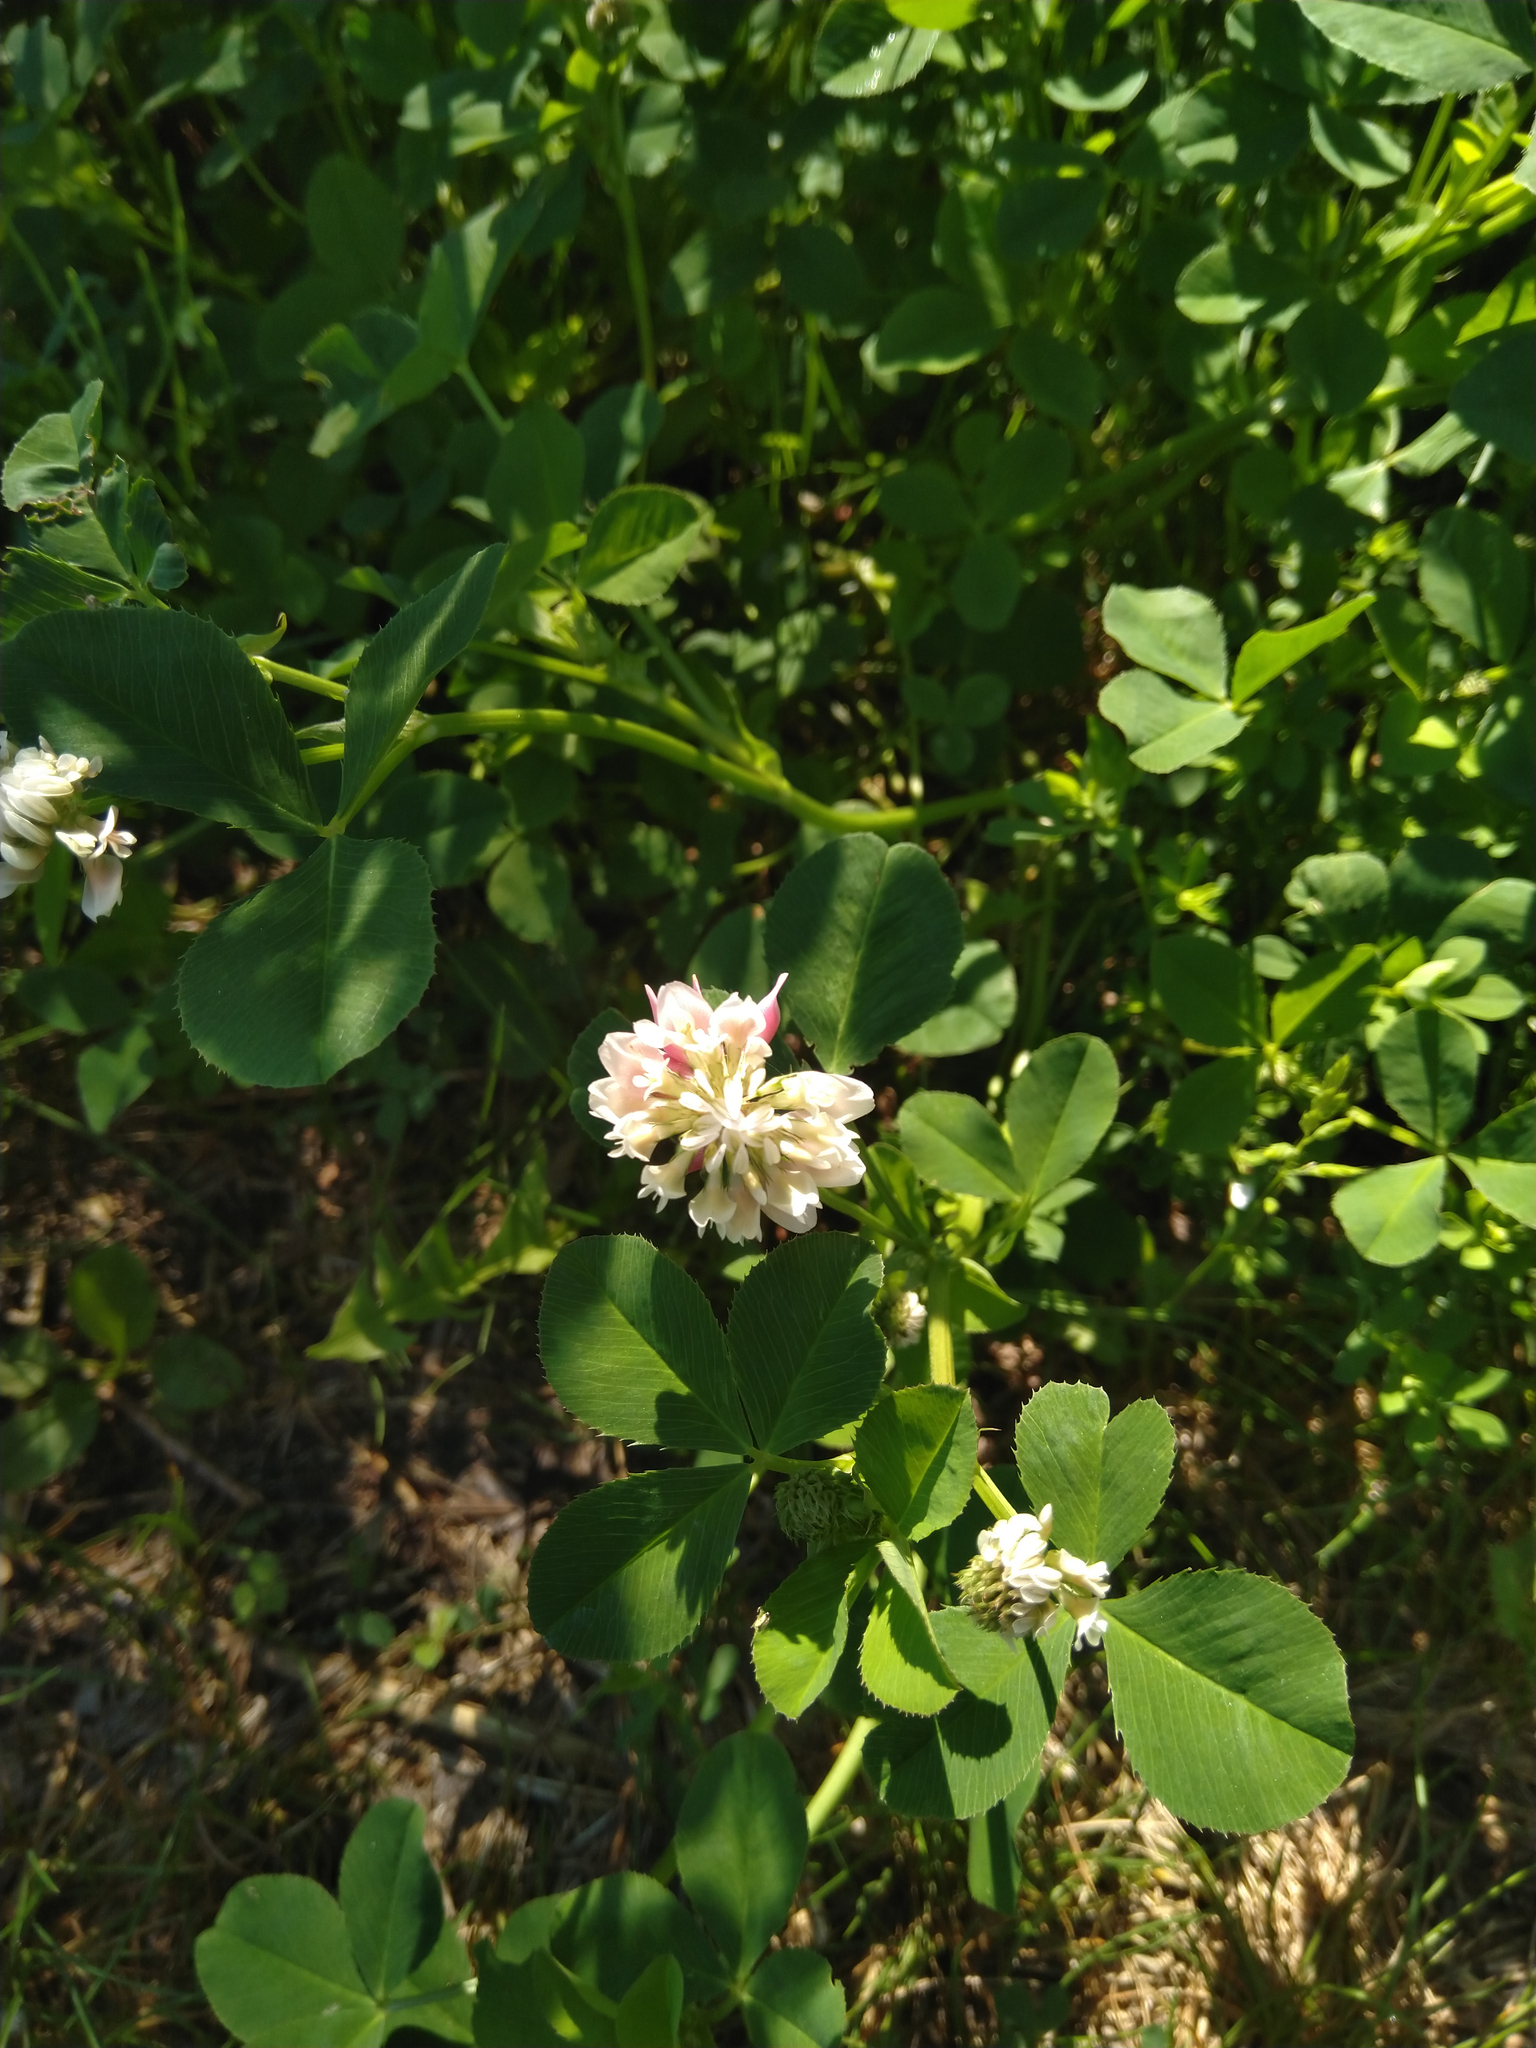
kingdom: Plantae
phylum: Tracheophyta
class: Magnoliopsida
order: Fabales
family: Fabaceae
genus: Trifolium
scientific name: Trifolium hybridum
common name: Alsike clover
